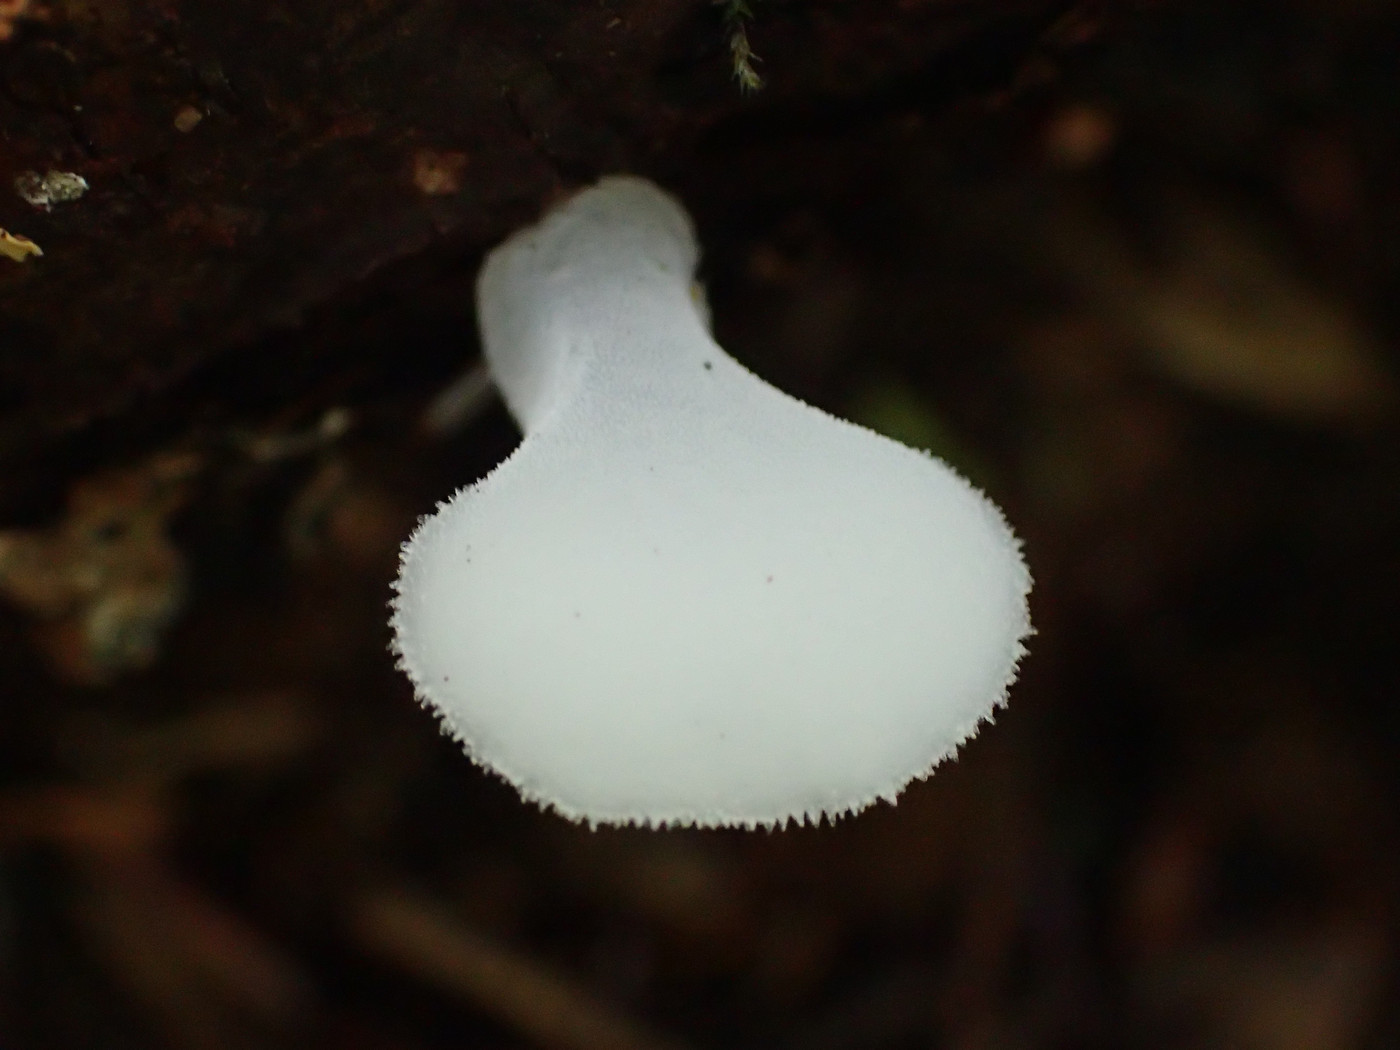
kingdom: Fungi
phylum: Basidiomycota
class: Agaricomycetes
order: Auriculariales
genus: Pseudohydnum
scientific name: Pseudohydnum gelatinosum
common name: Jelly tongue
